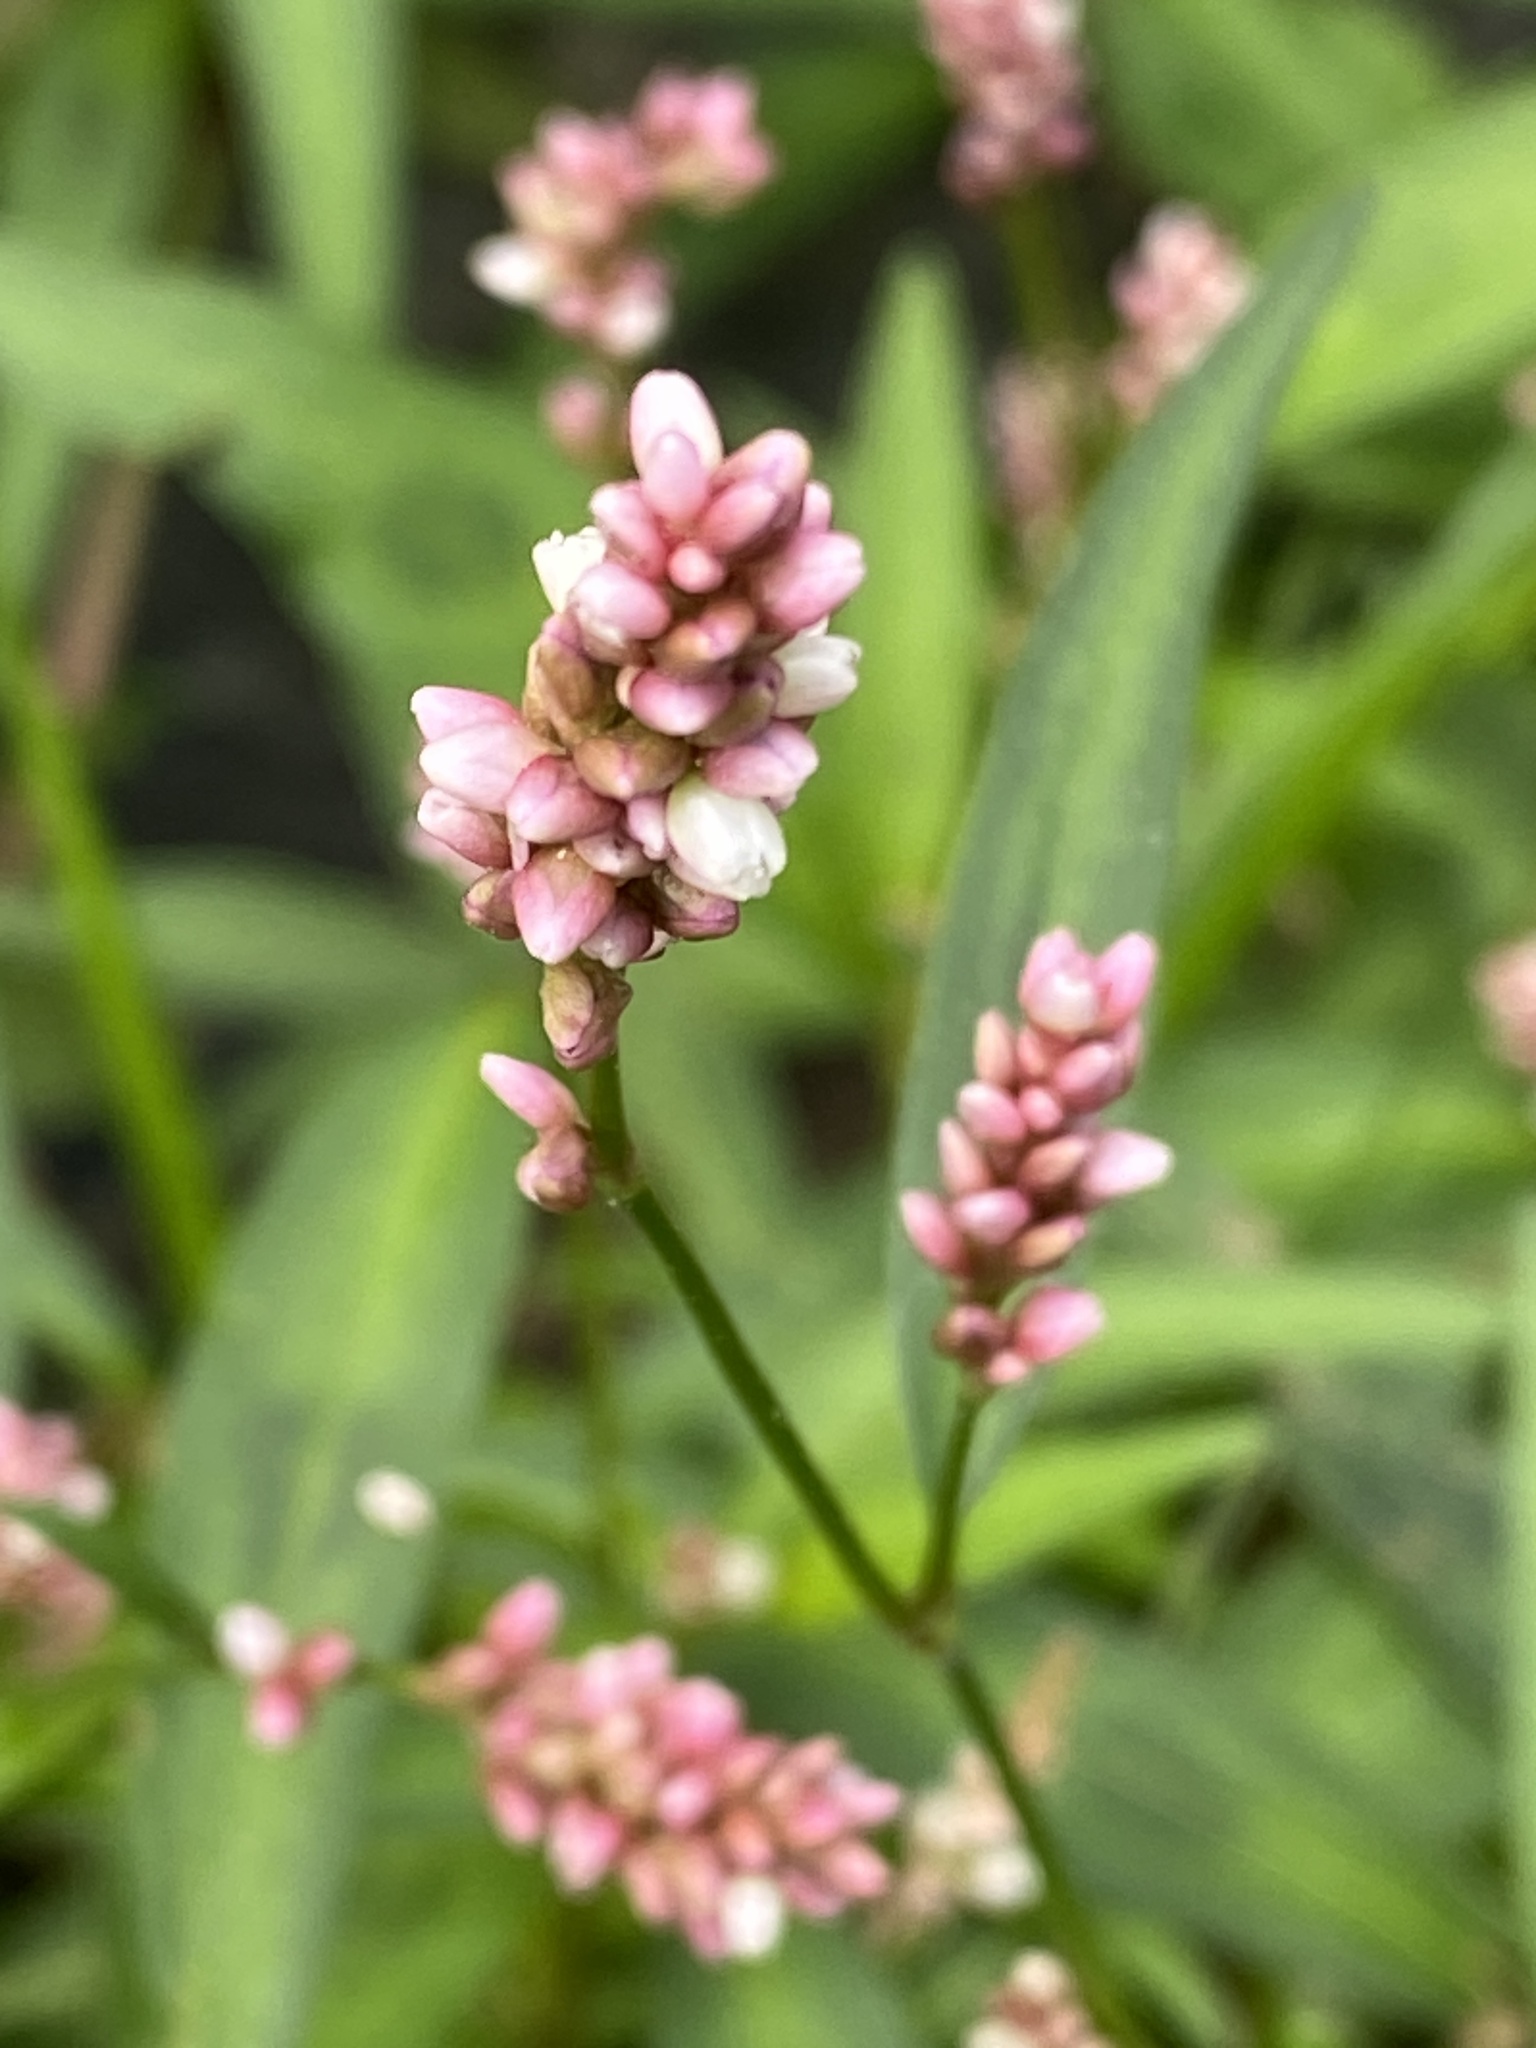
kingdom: Plantae
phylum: Tracheophyta
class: Magnoliopsida
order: Caryophyllales
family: Polygonaceae
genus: Persicaria
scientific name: Persicaria maculosa
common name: Redshank
